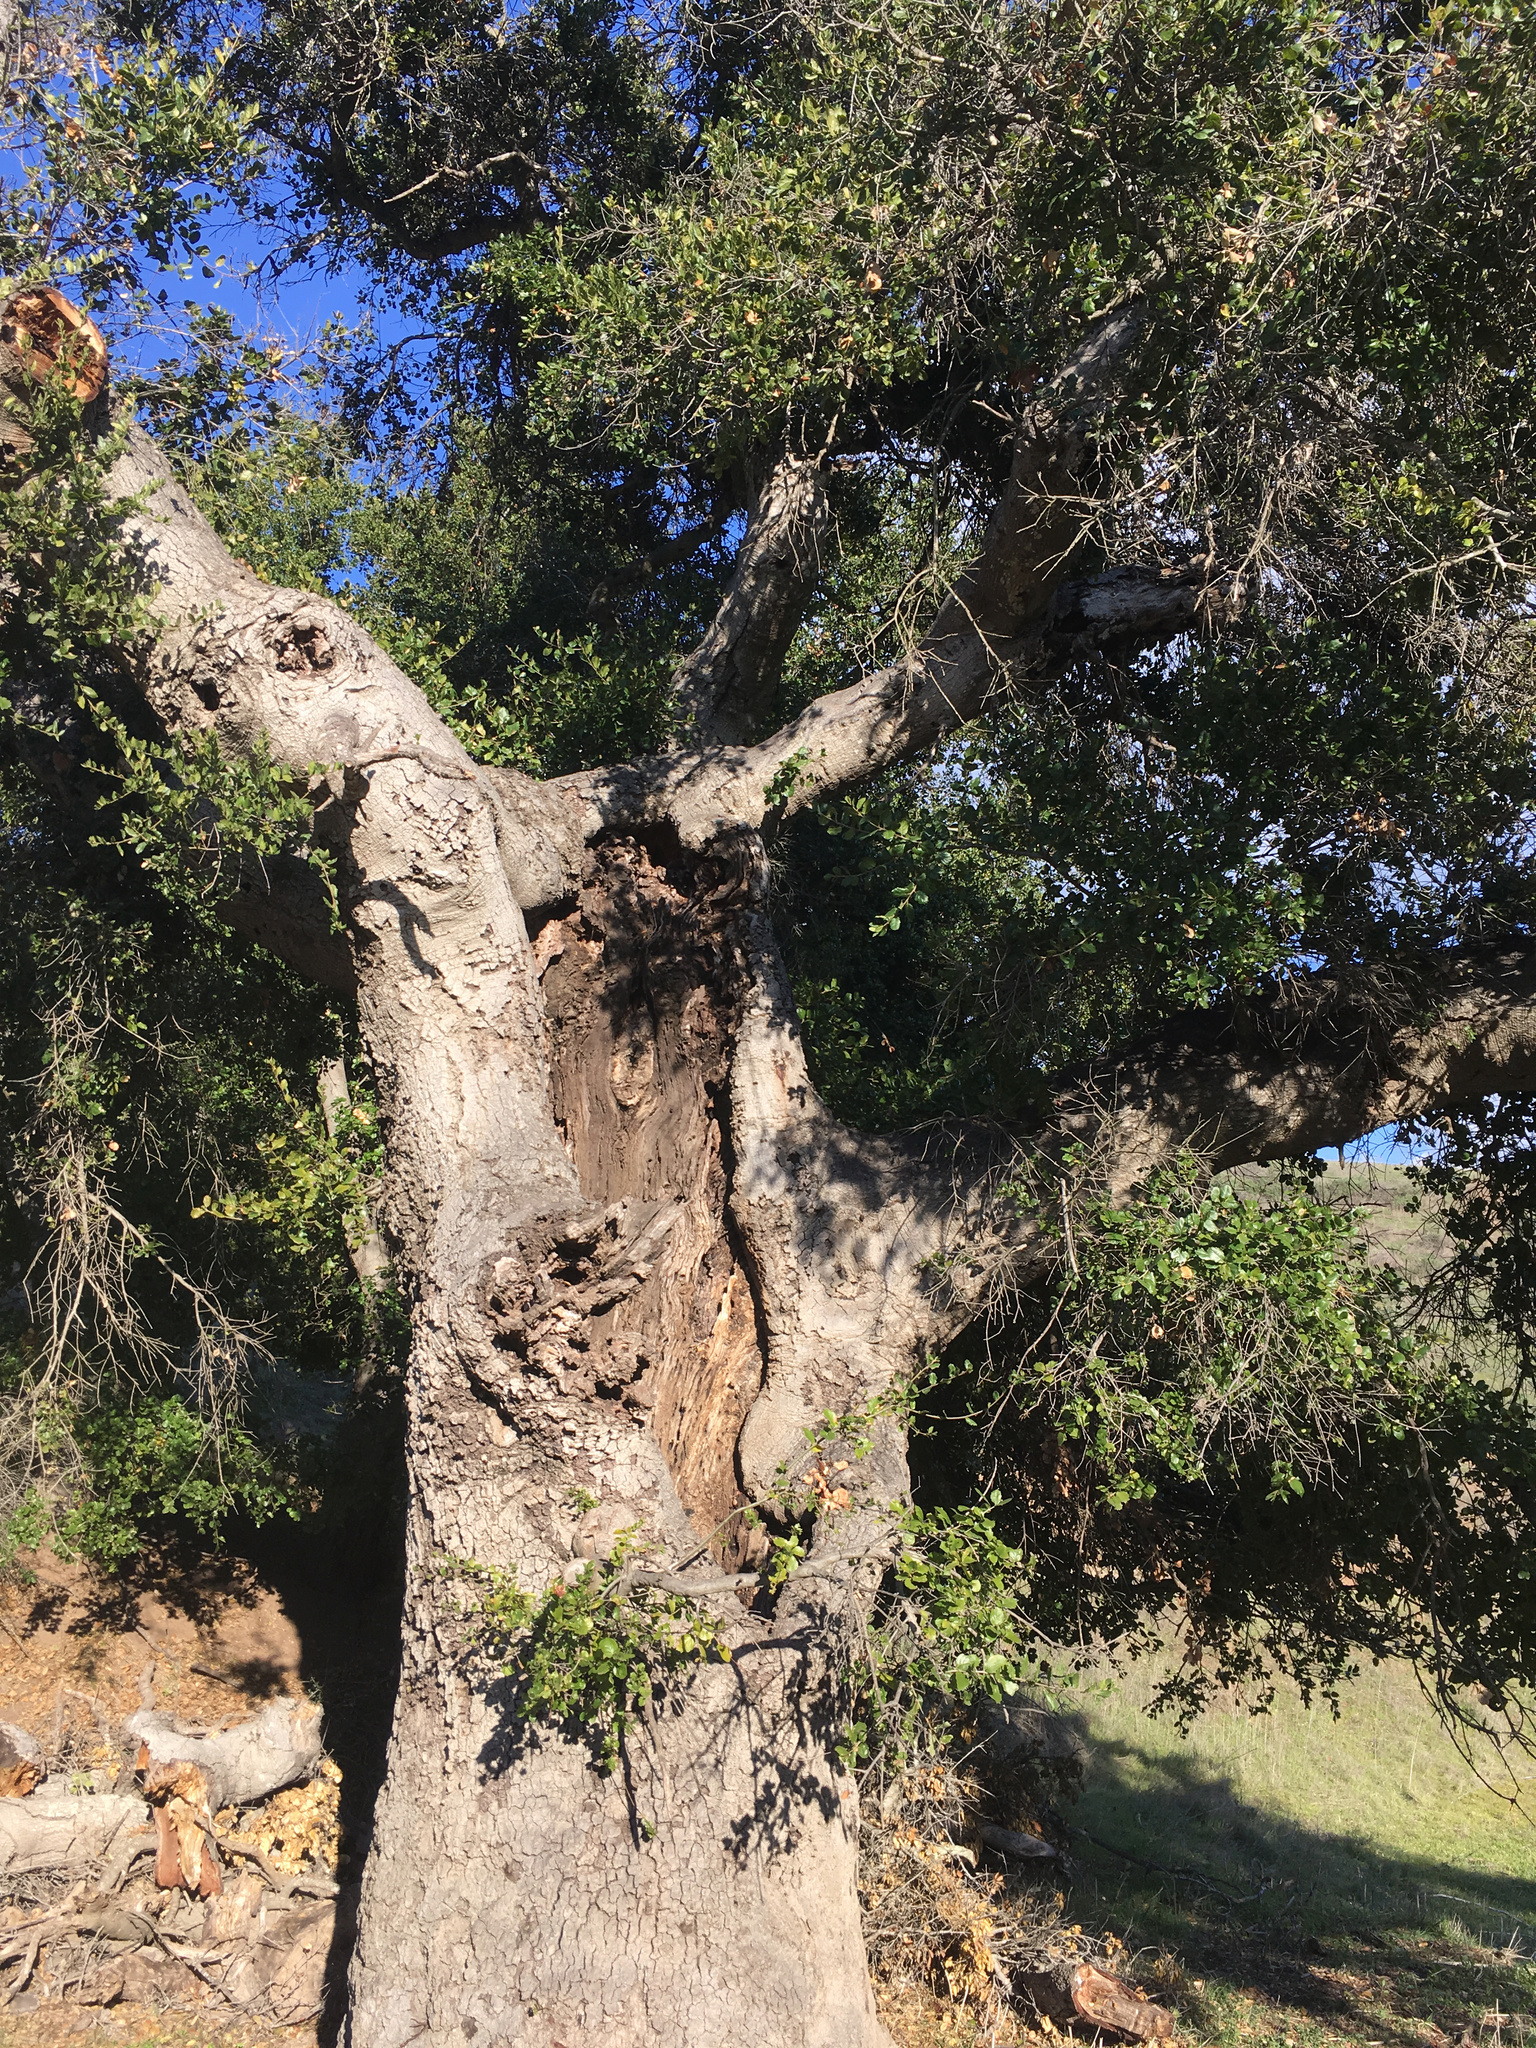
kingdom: Plantae
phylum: Tracheophyta
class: Magnoliopsida
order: Fagales
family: Fagaceae
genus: Quercus
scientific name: Quercus agrifolia
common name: California live oak
